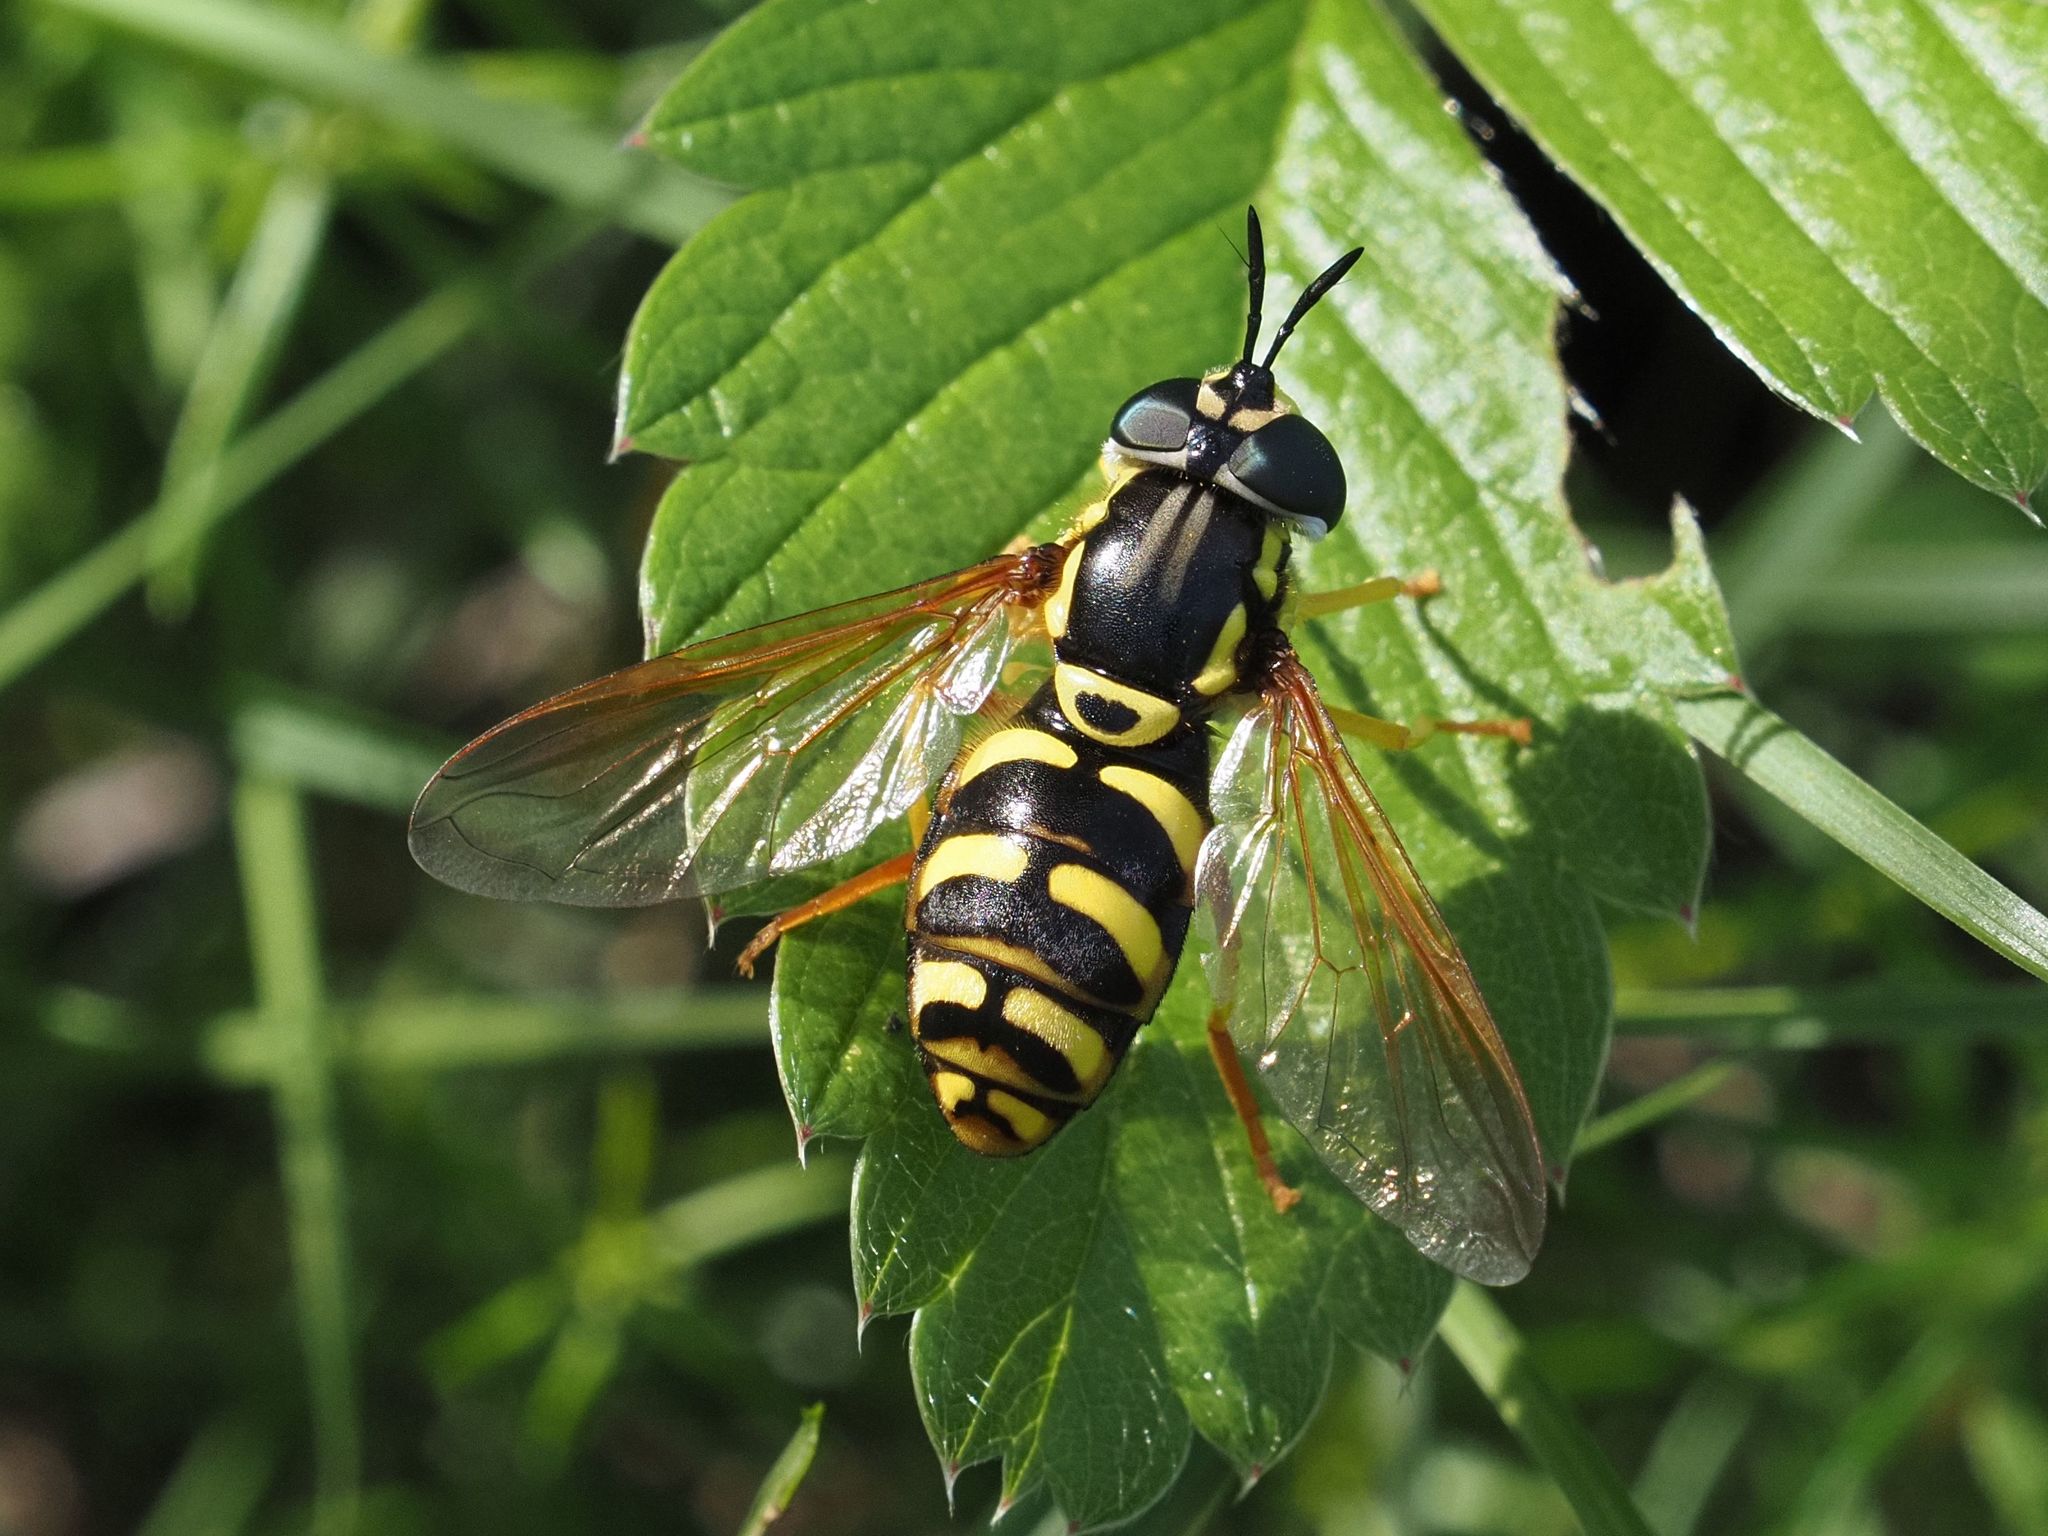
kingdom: Animalia
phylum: Arthropoda
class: Insecta
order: Diptera
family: Syrphidae
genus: Chrysotoxum
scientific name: Chrysotoxum elegans
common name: Zipperback
